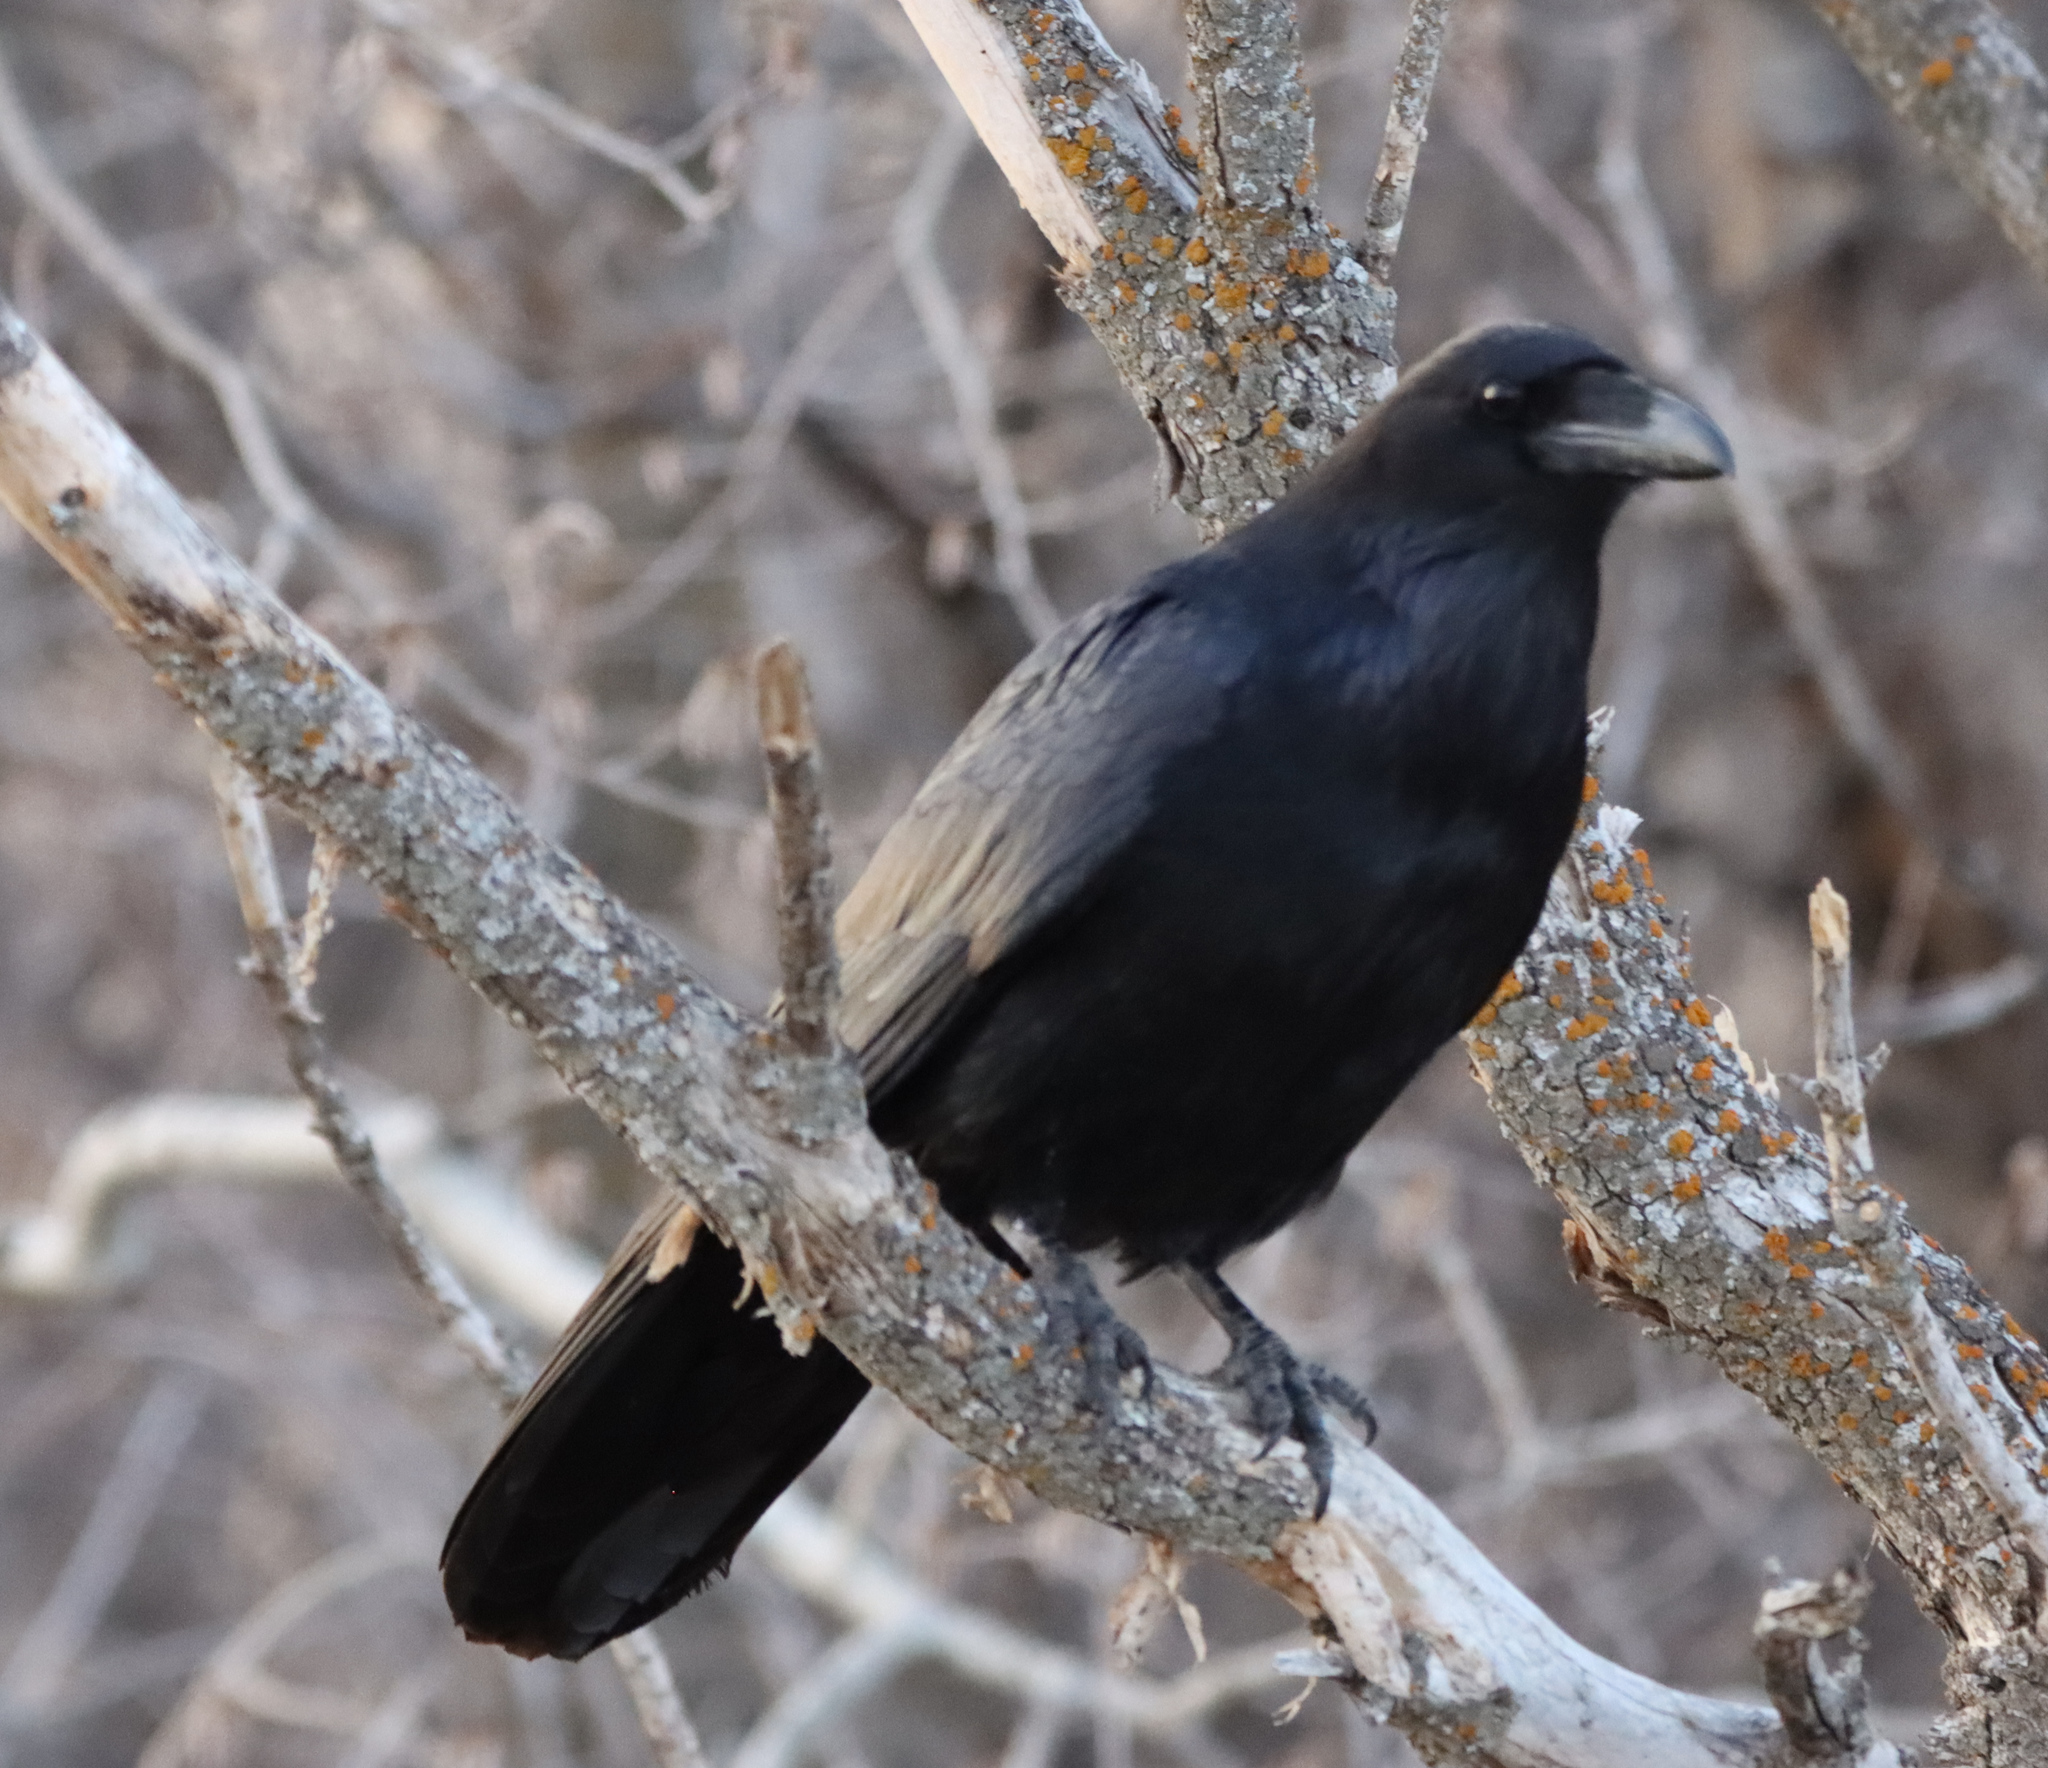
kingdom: Animalia
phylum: Chordata
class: Aves
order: Passeriformes
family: Corvidae
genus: Corvus
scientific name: Corvus corax
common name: Common raven
